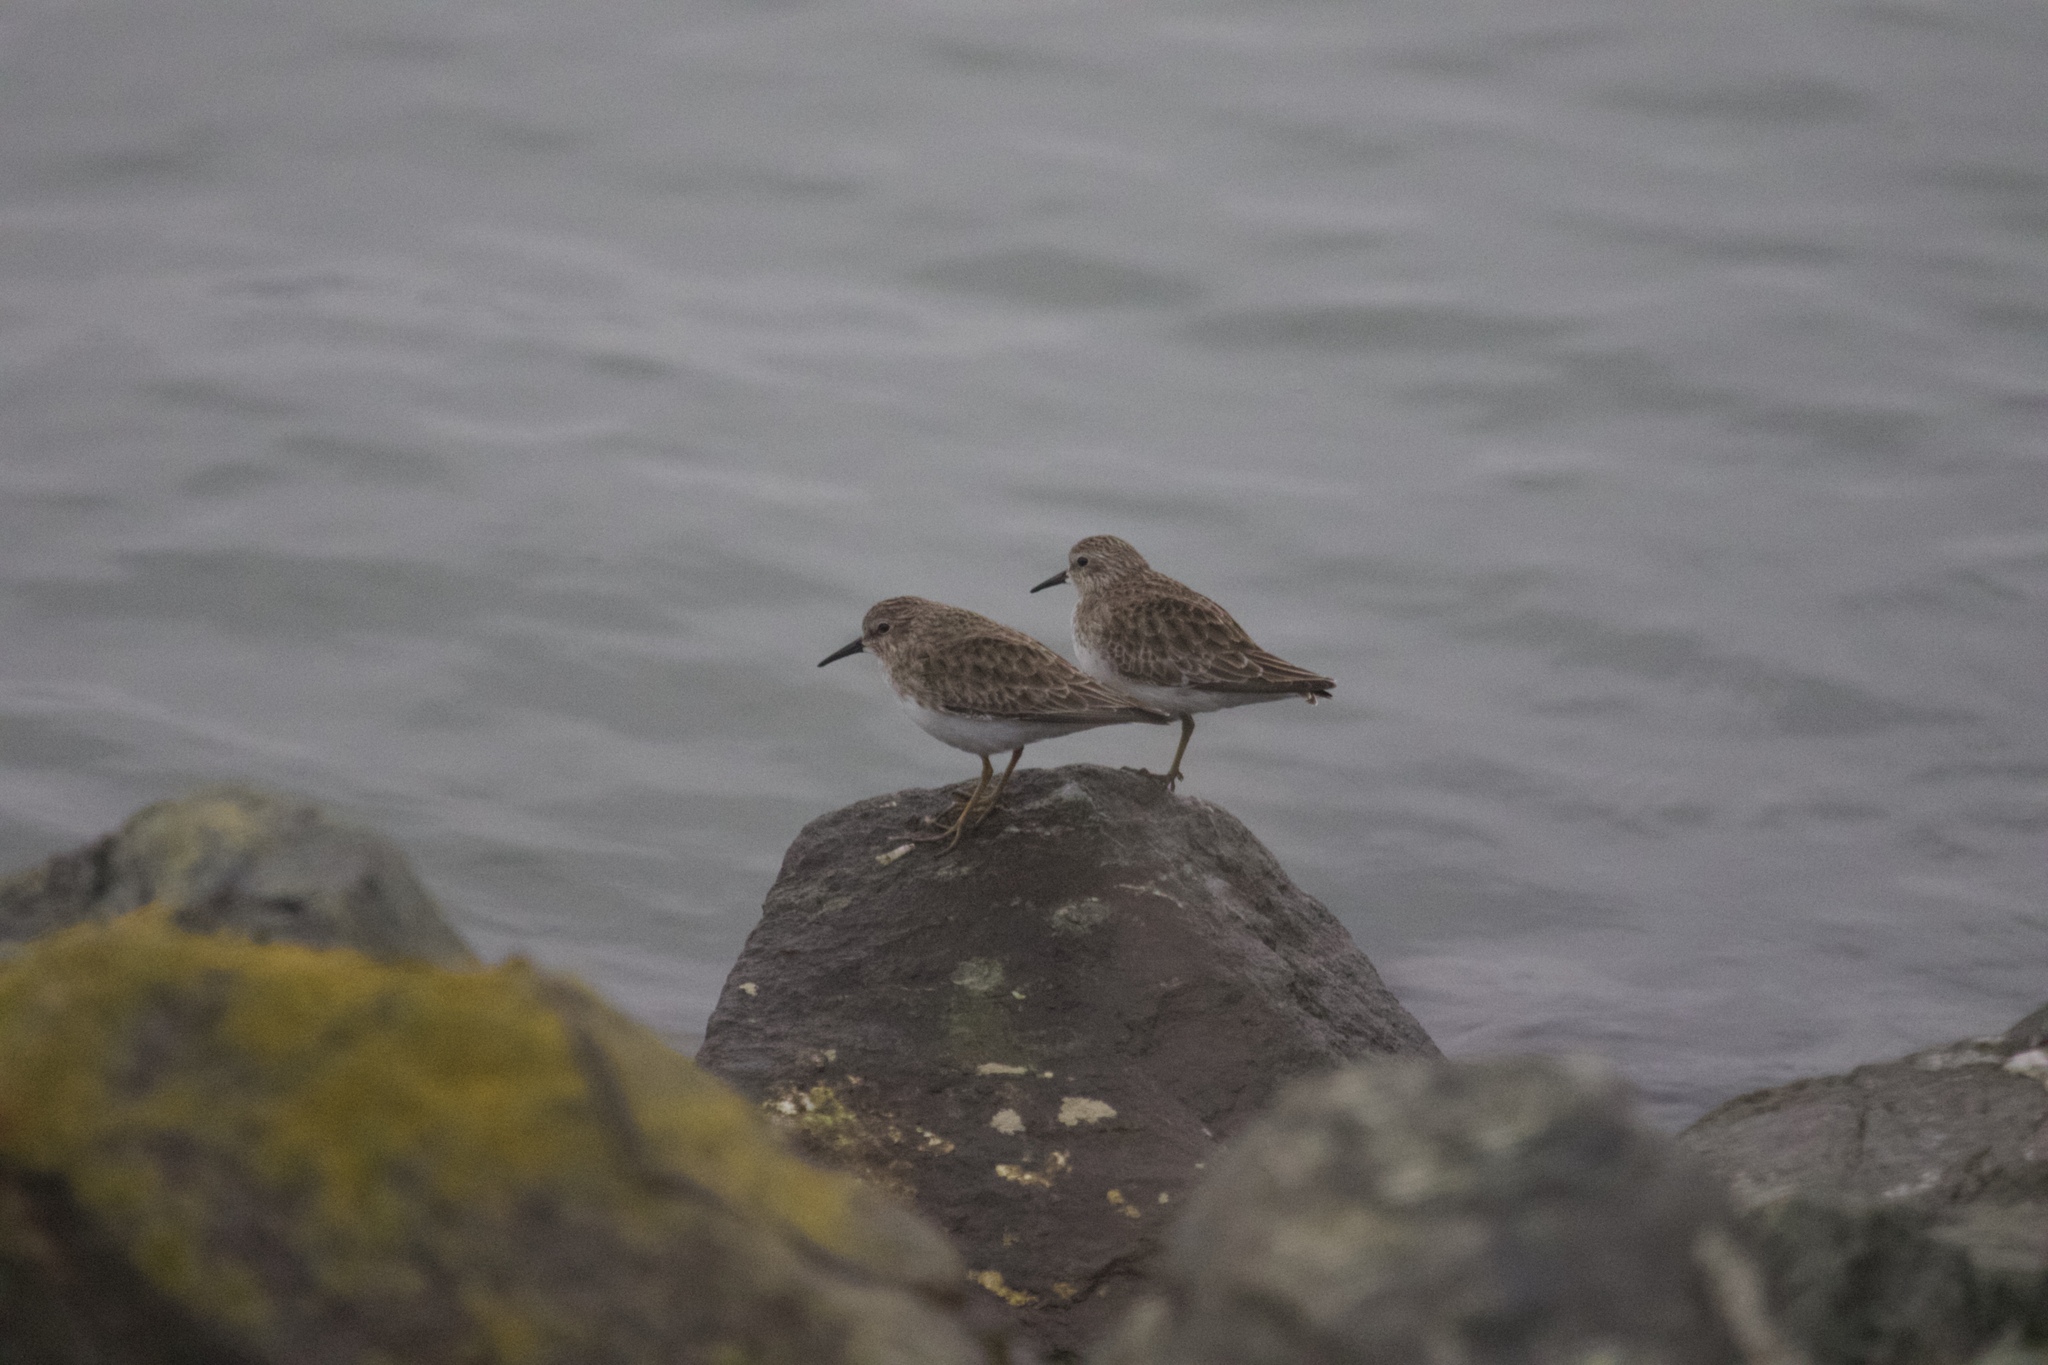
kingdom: Animalia
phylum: Chordata
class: Aves
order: Charadriiformes
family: Scolopacidae
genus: Calidris
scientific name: Calidris minutilla
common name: Least sandpiper
